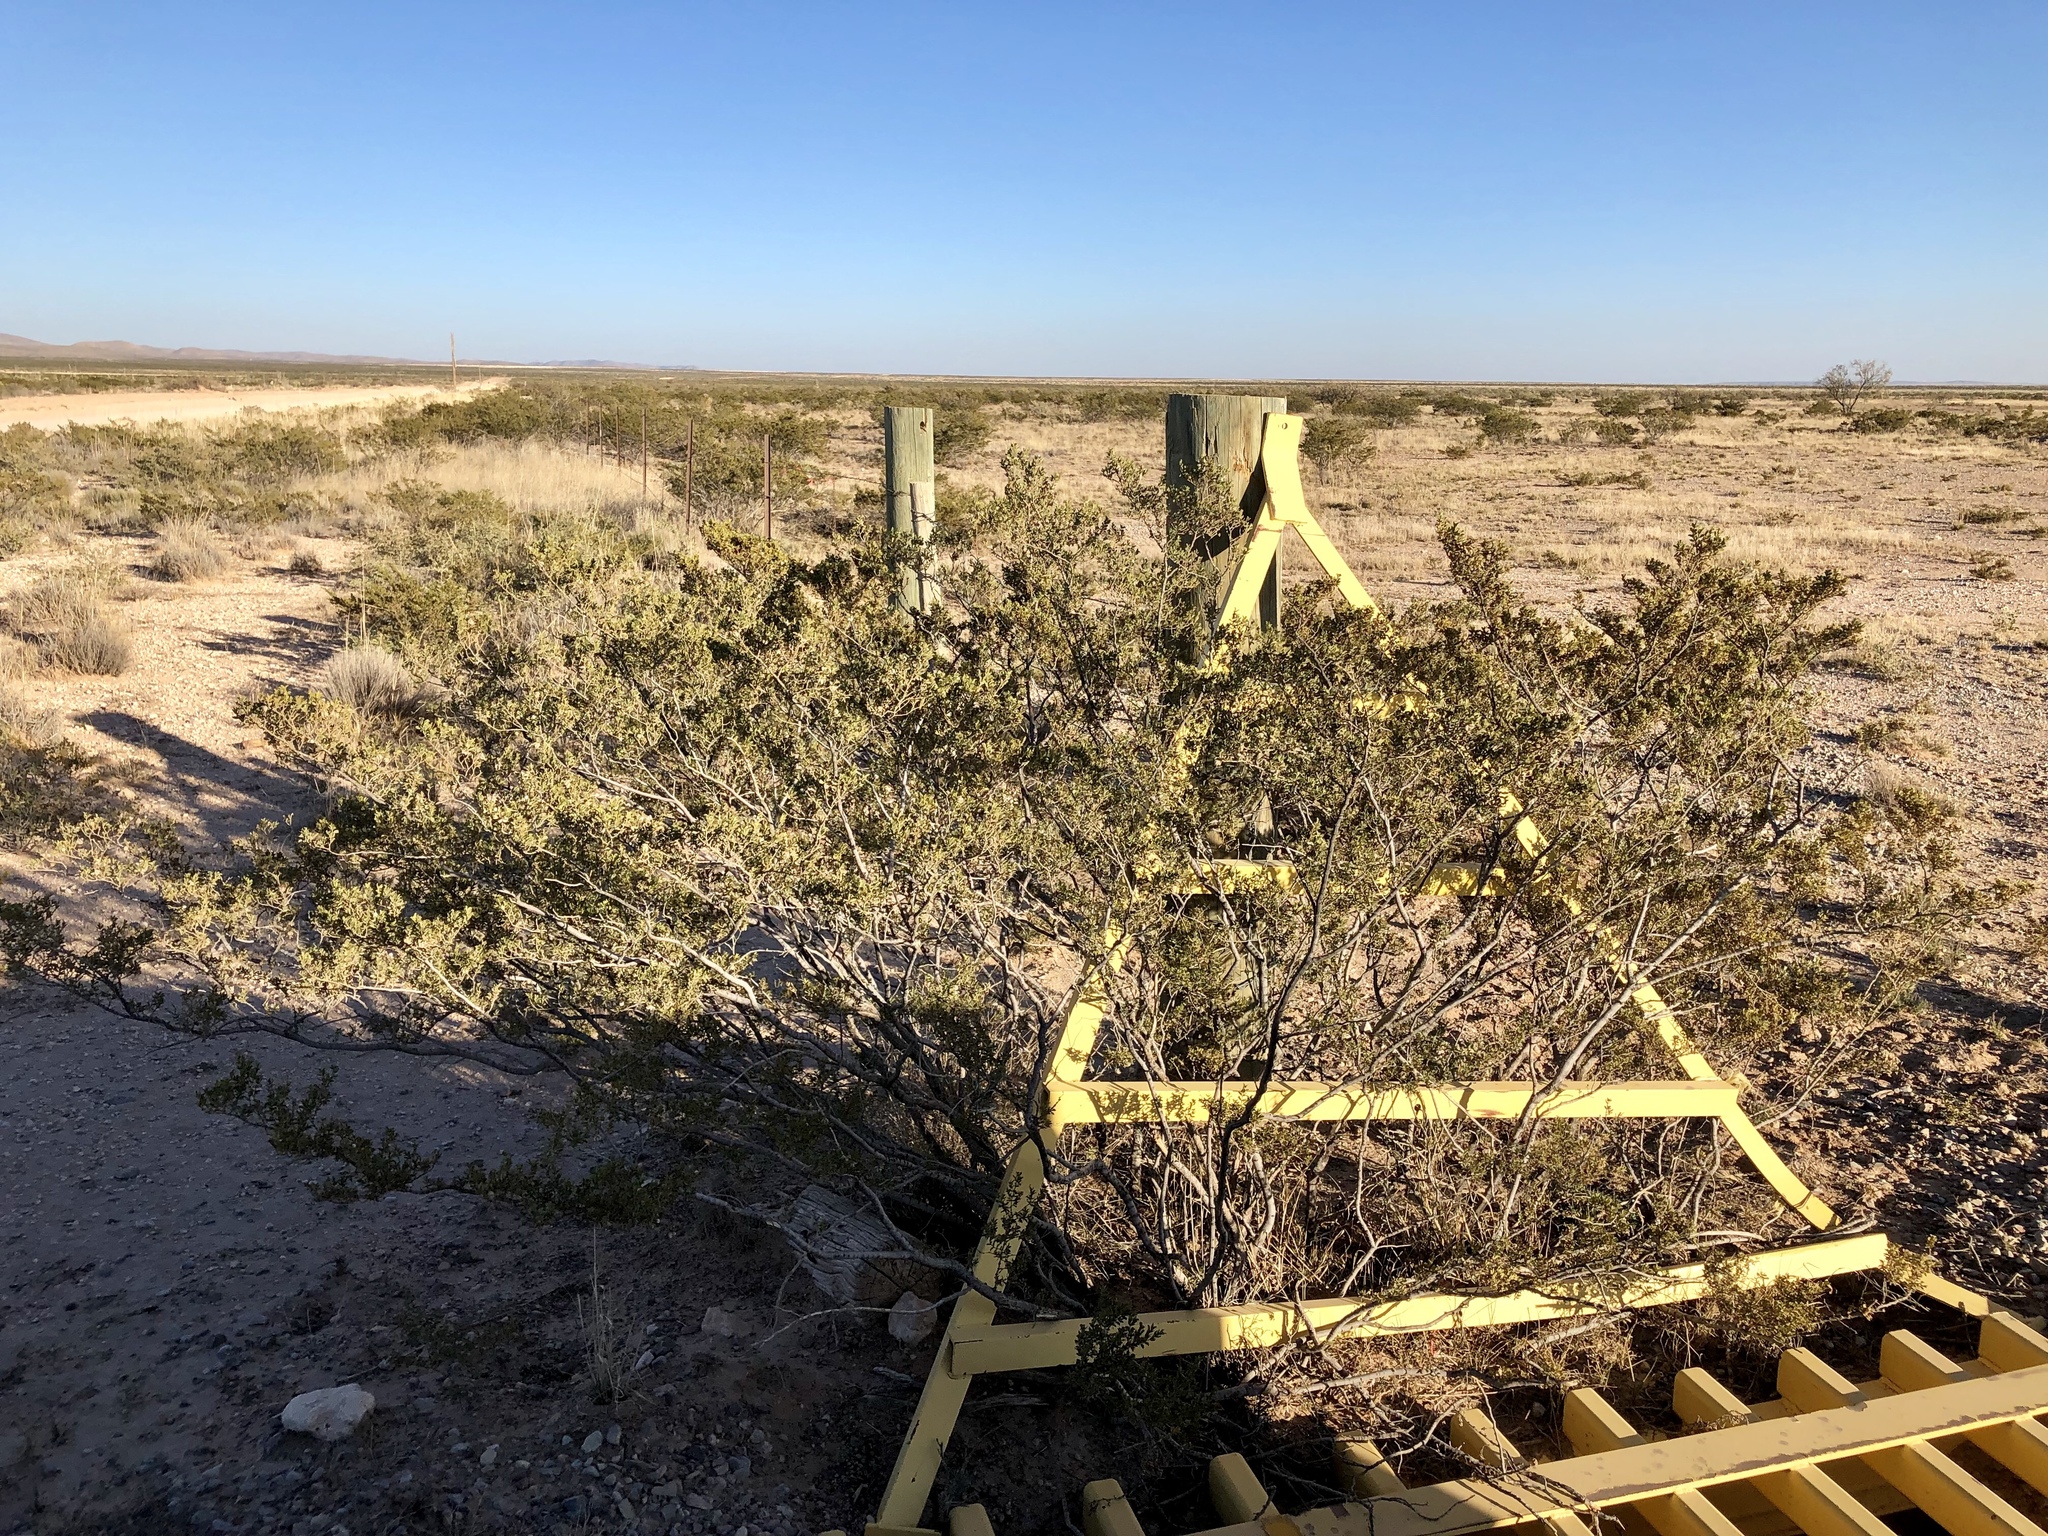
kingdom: Plantae
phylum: Tracheophyta
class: Magnoliopsida
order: Zygophyllales
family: Zygophyllaceae
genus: Larrea
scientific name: Larrea tridentata
